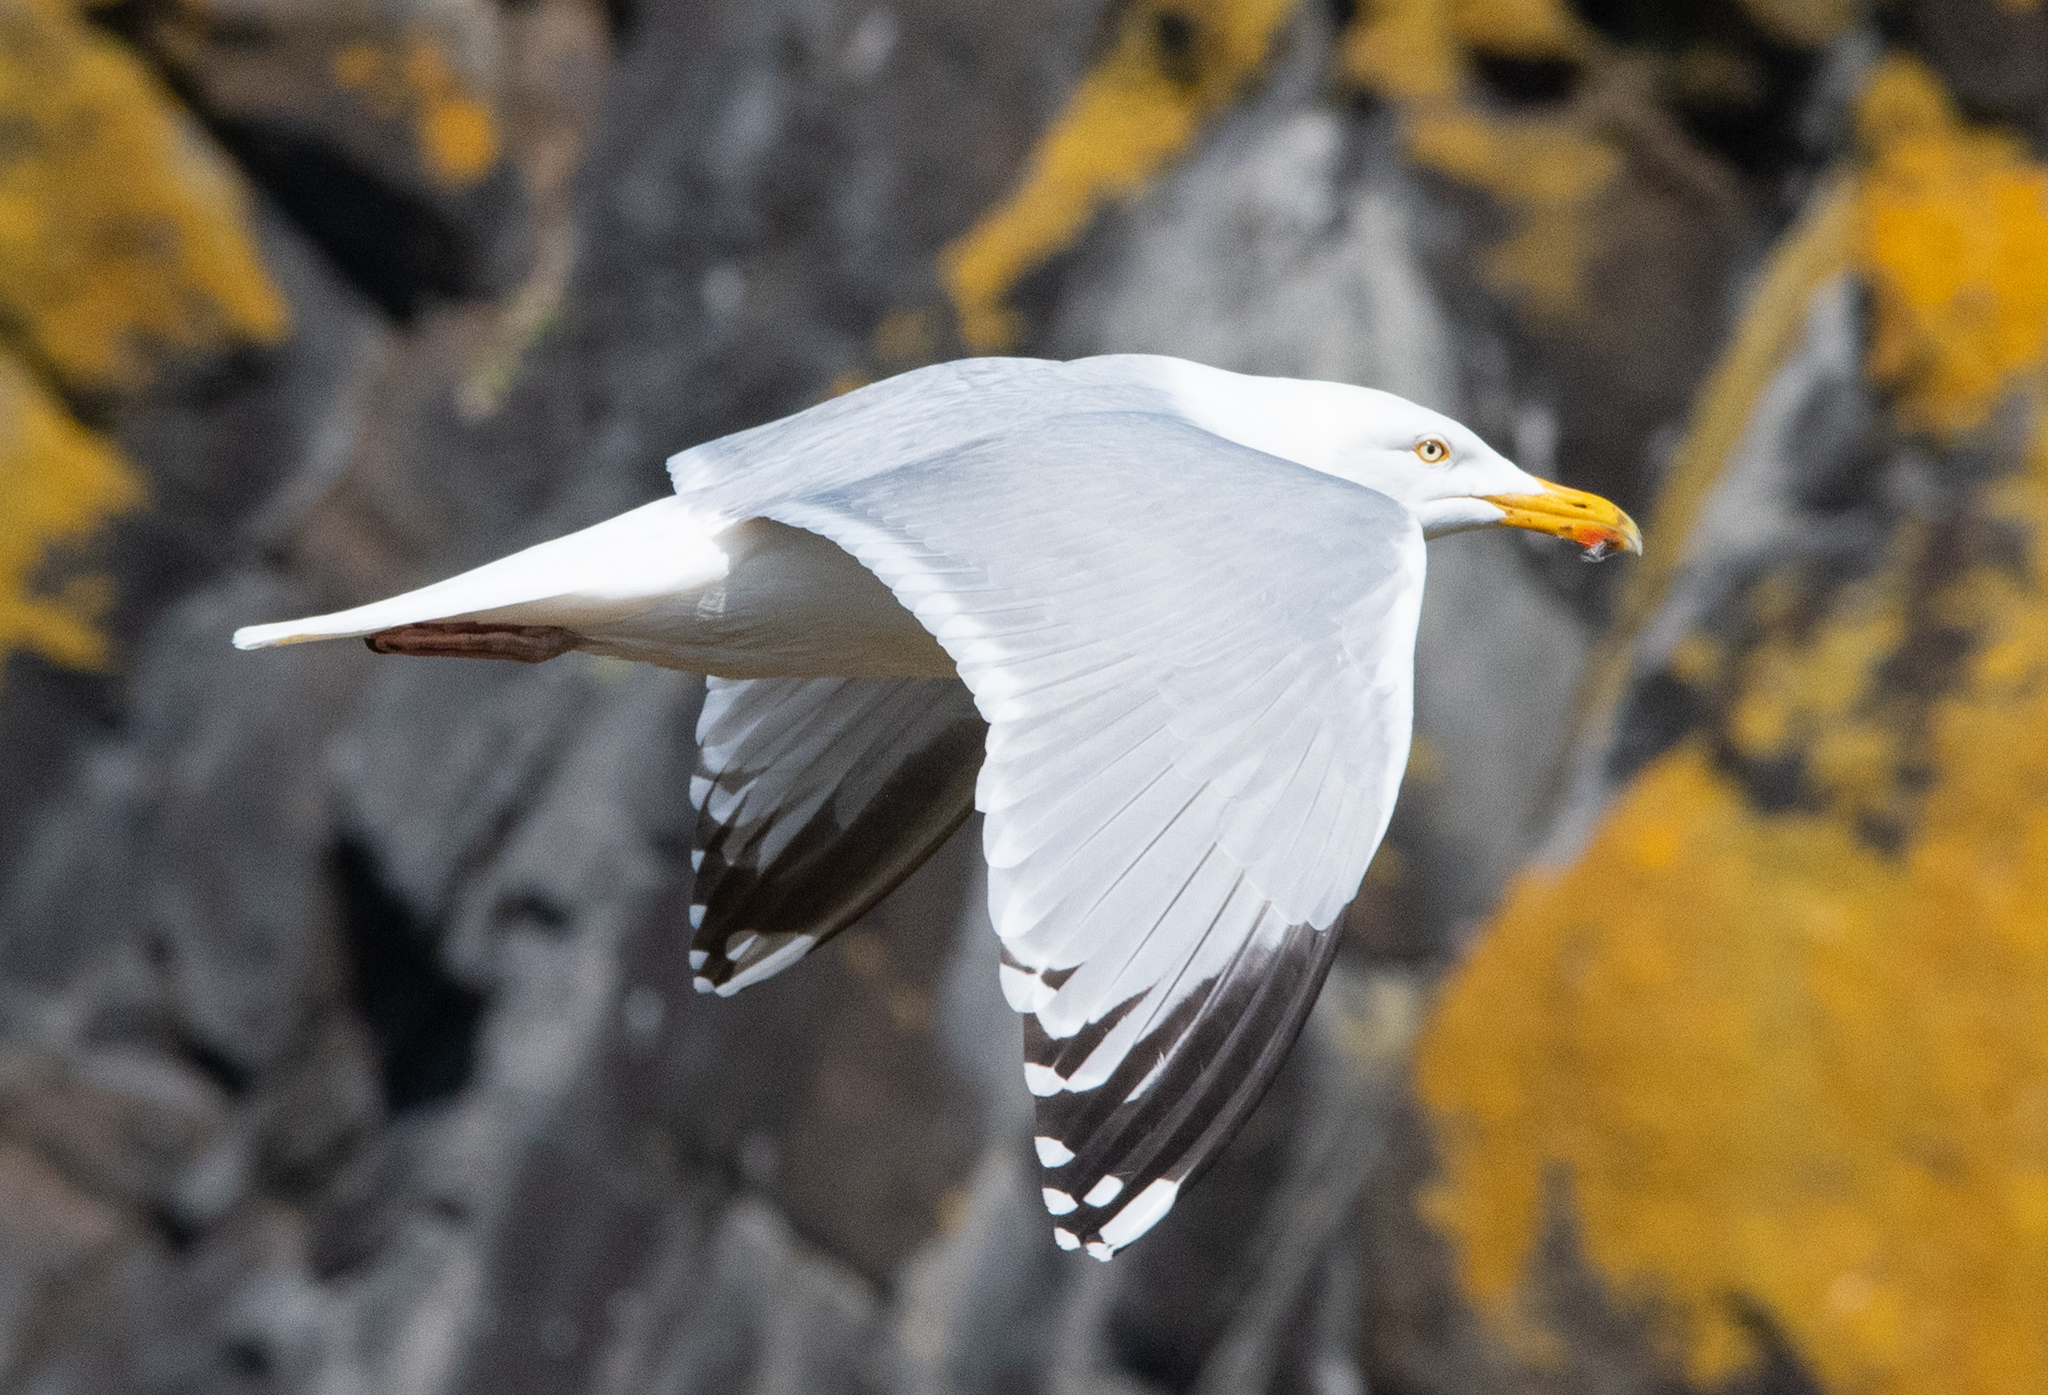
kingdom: Animalia
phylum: Chordata
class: Aves
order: Charadriiformes
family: Laridae
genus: Larus
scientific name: Larus argentatus
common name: Herring gull
